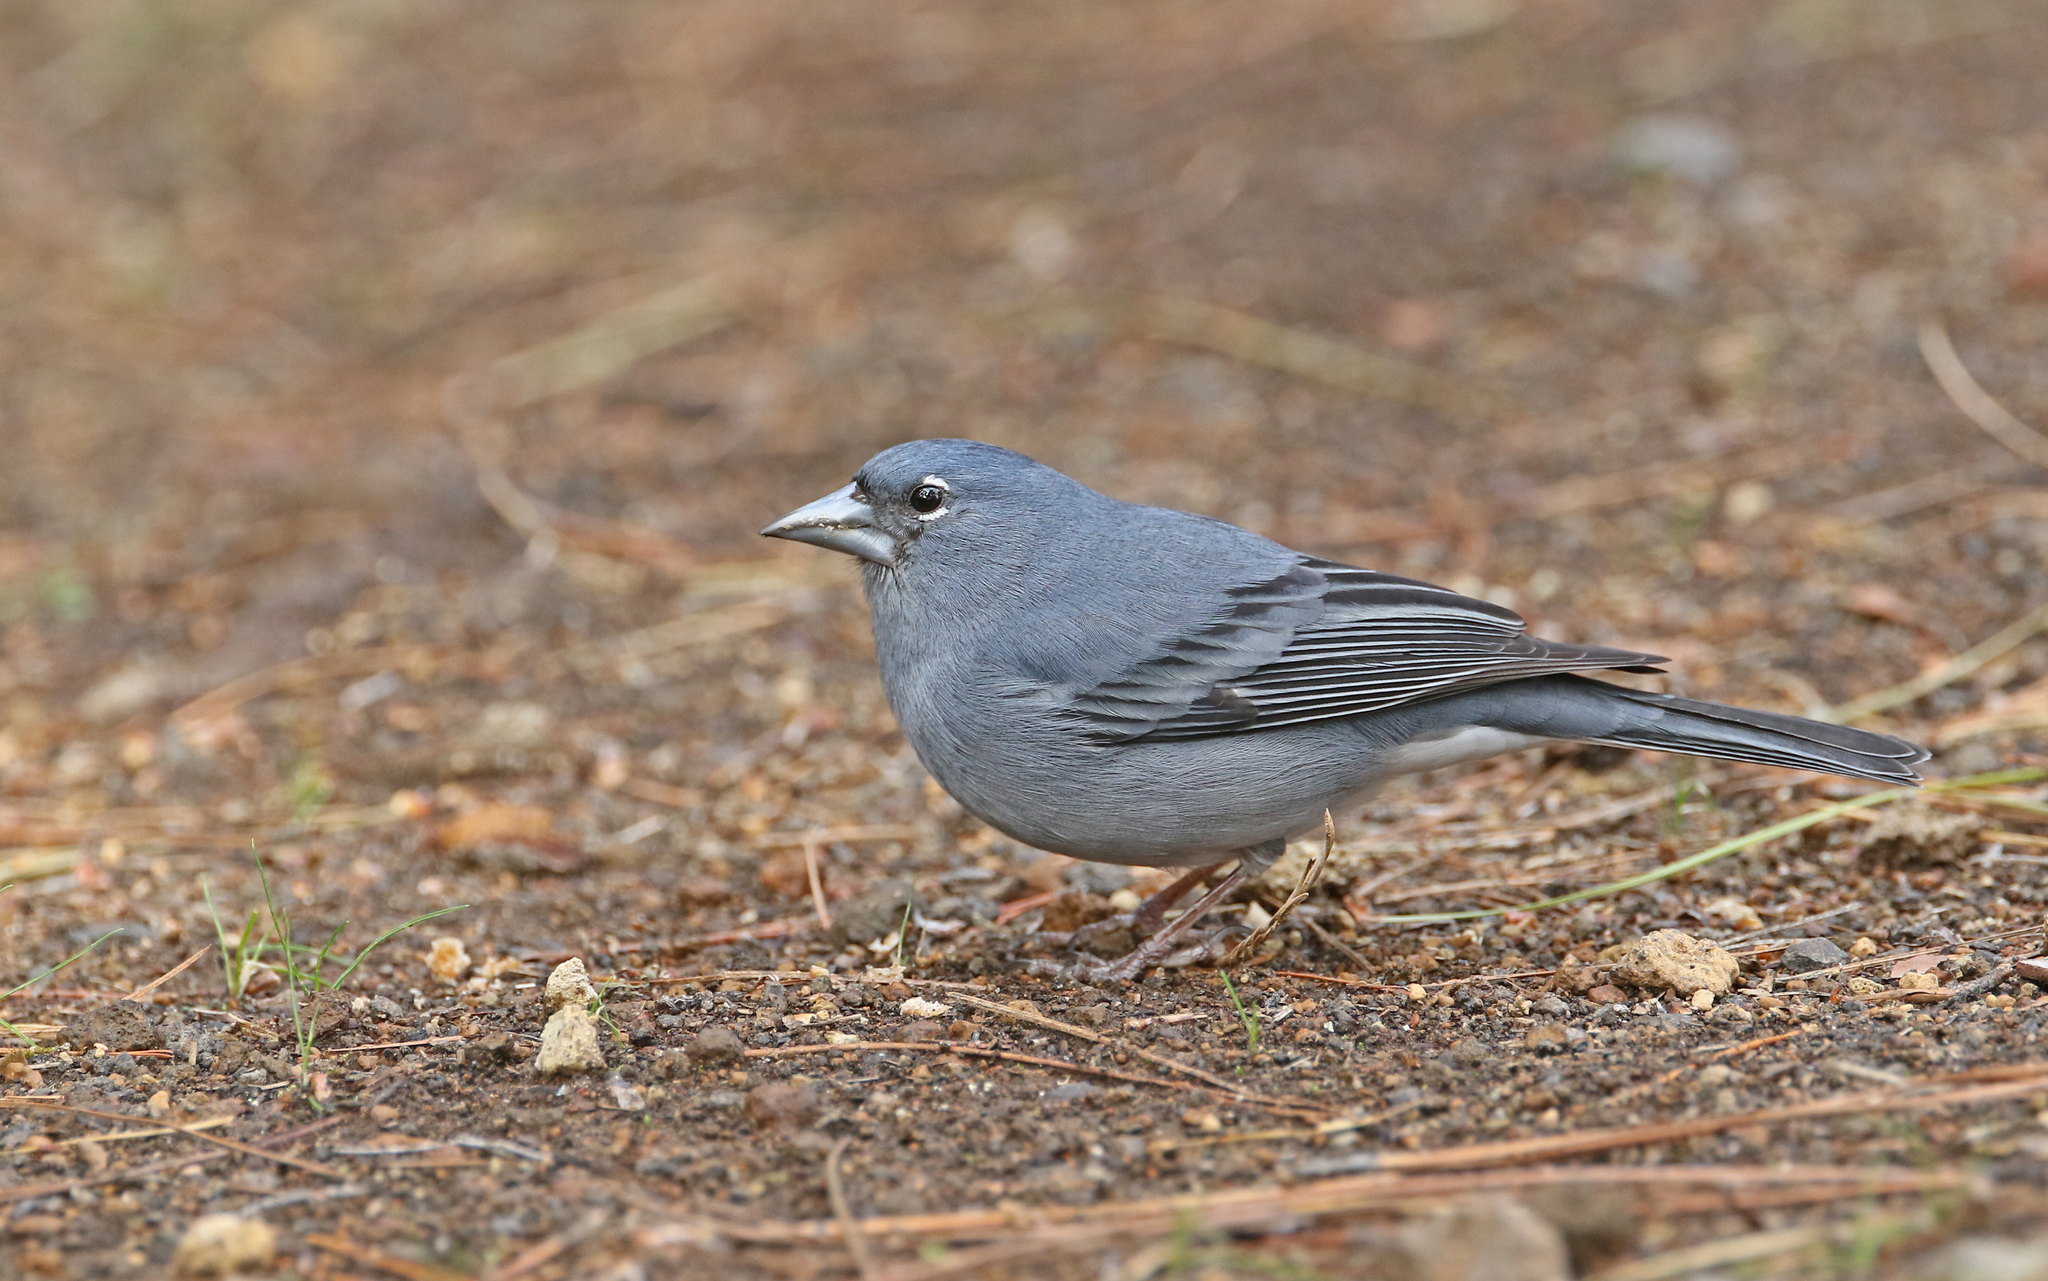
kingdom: Animalia
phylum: Chordata
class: Aves
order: Passeriformes
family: Fringillidae
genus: Fringilla
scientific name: Fringilla teydea
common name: Blue chaffinch
